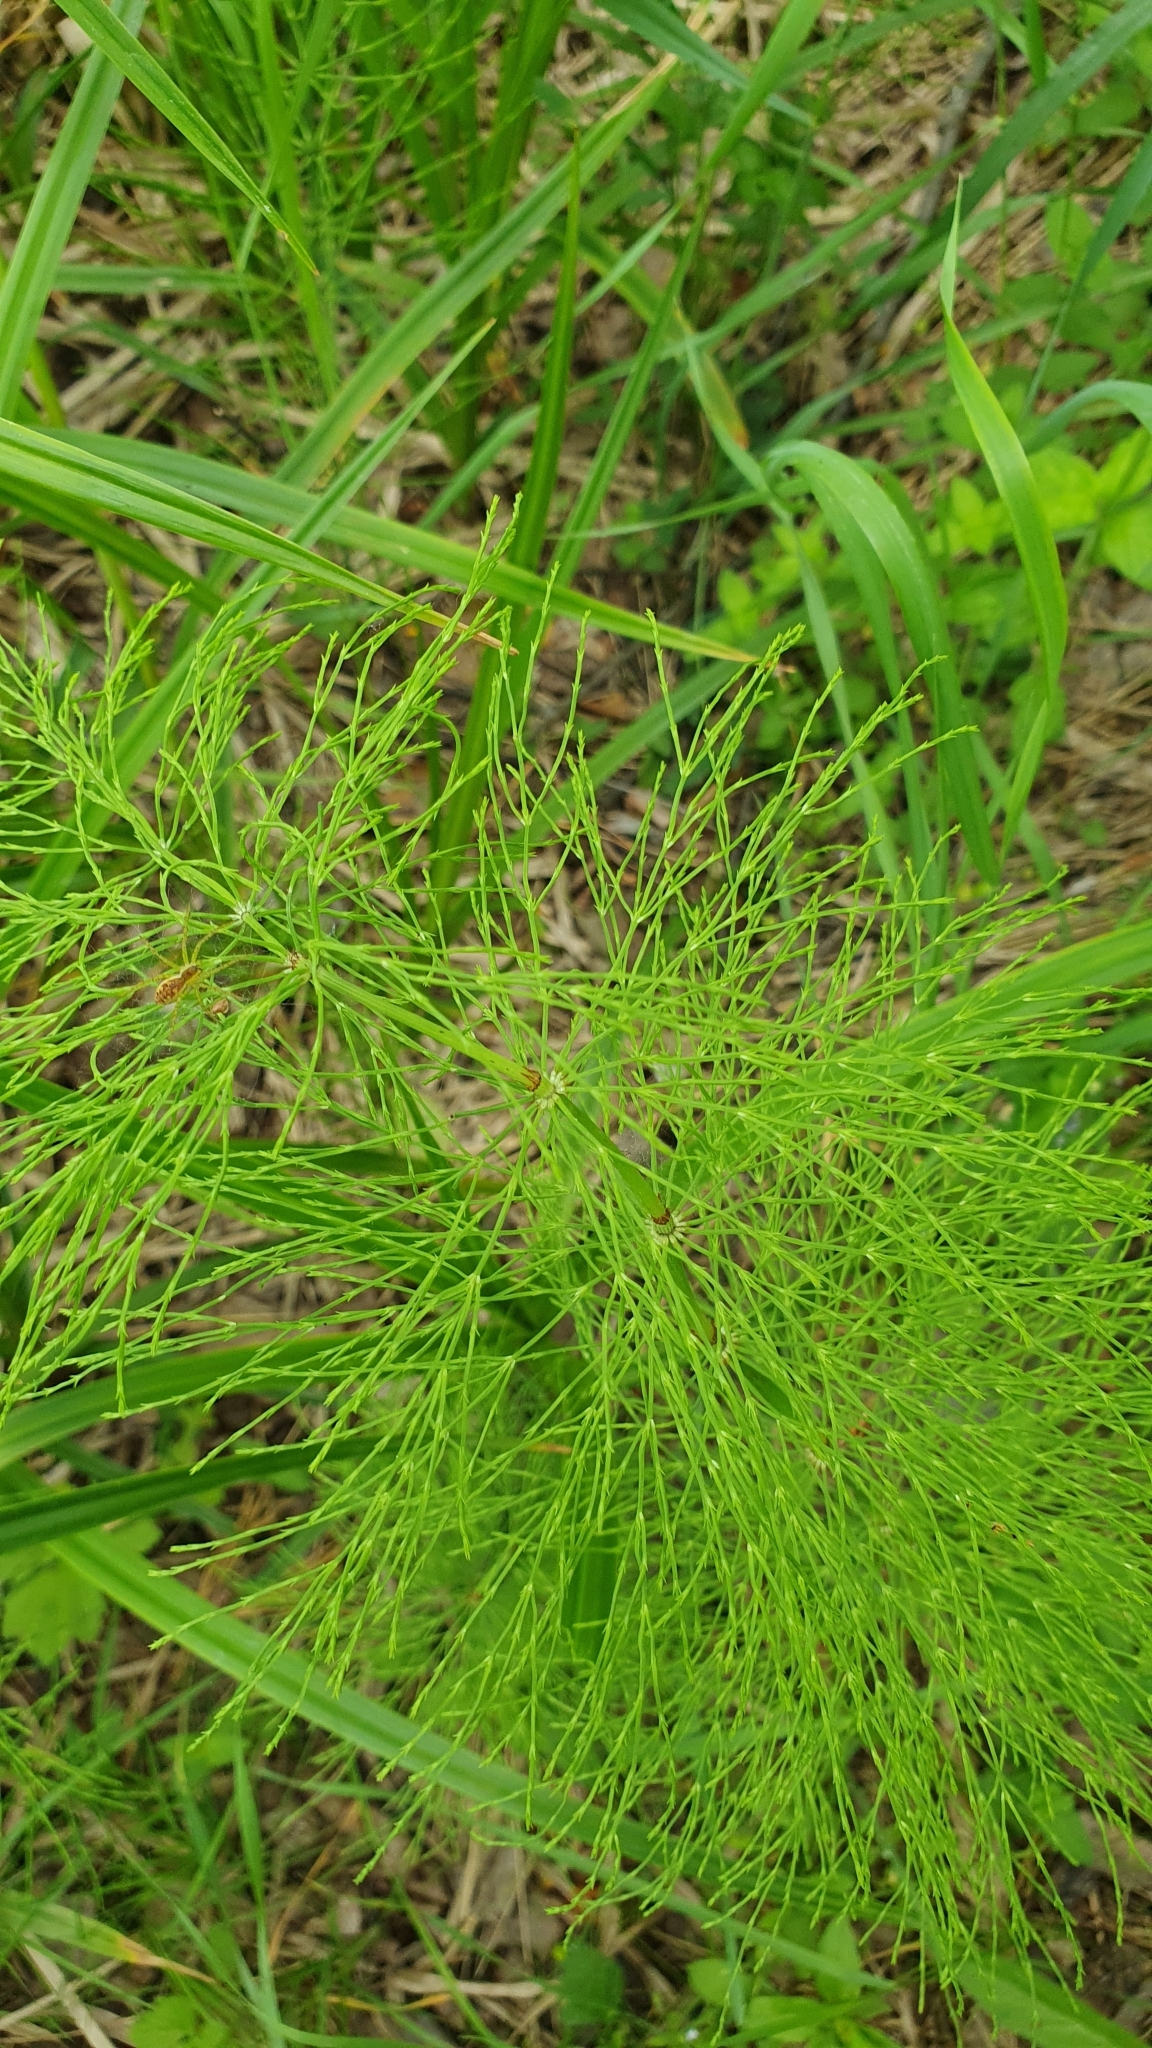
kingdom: Plantae
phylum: Tracheophyta
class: Polypodiopsida
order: Equisetales
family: Equisetaceae
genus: Equisetum
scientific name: Equisetum sylvaticum
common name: Wood horsetail
